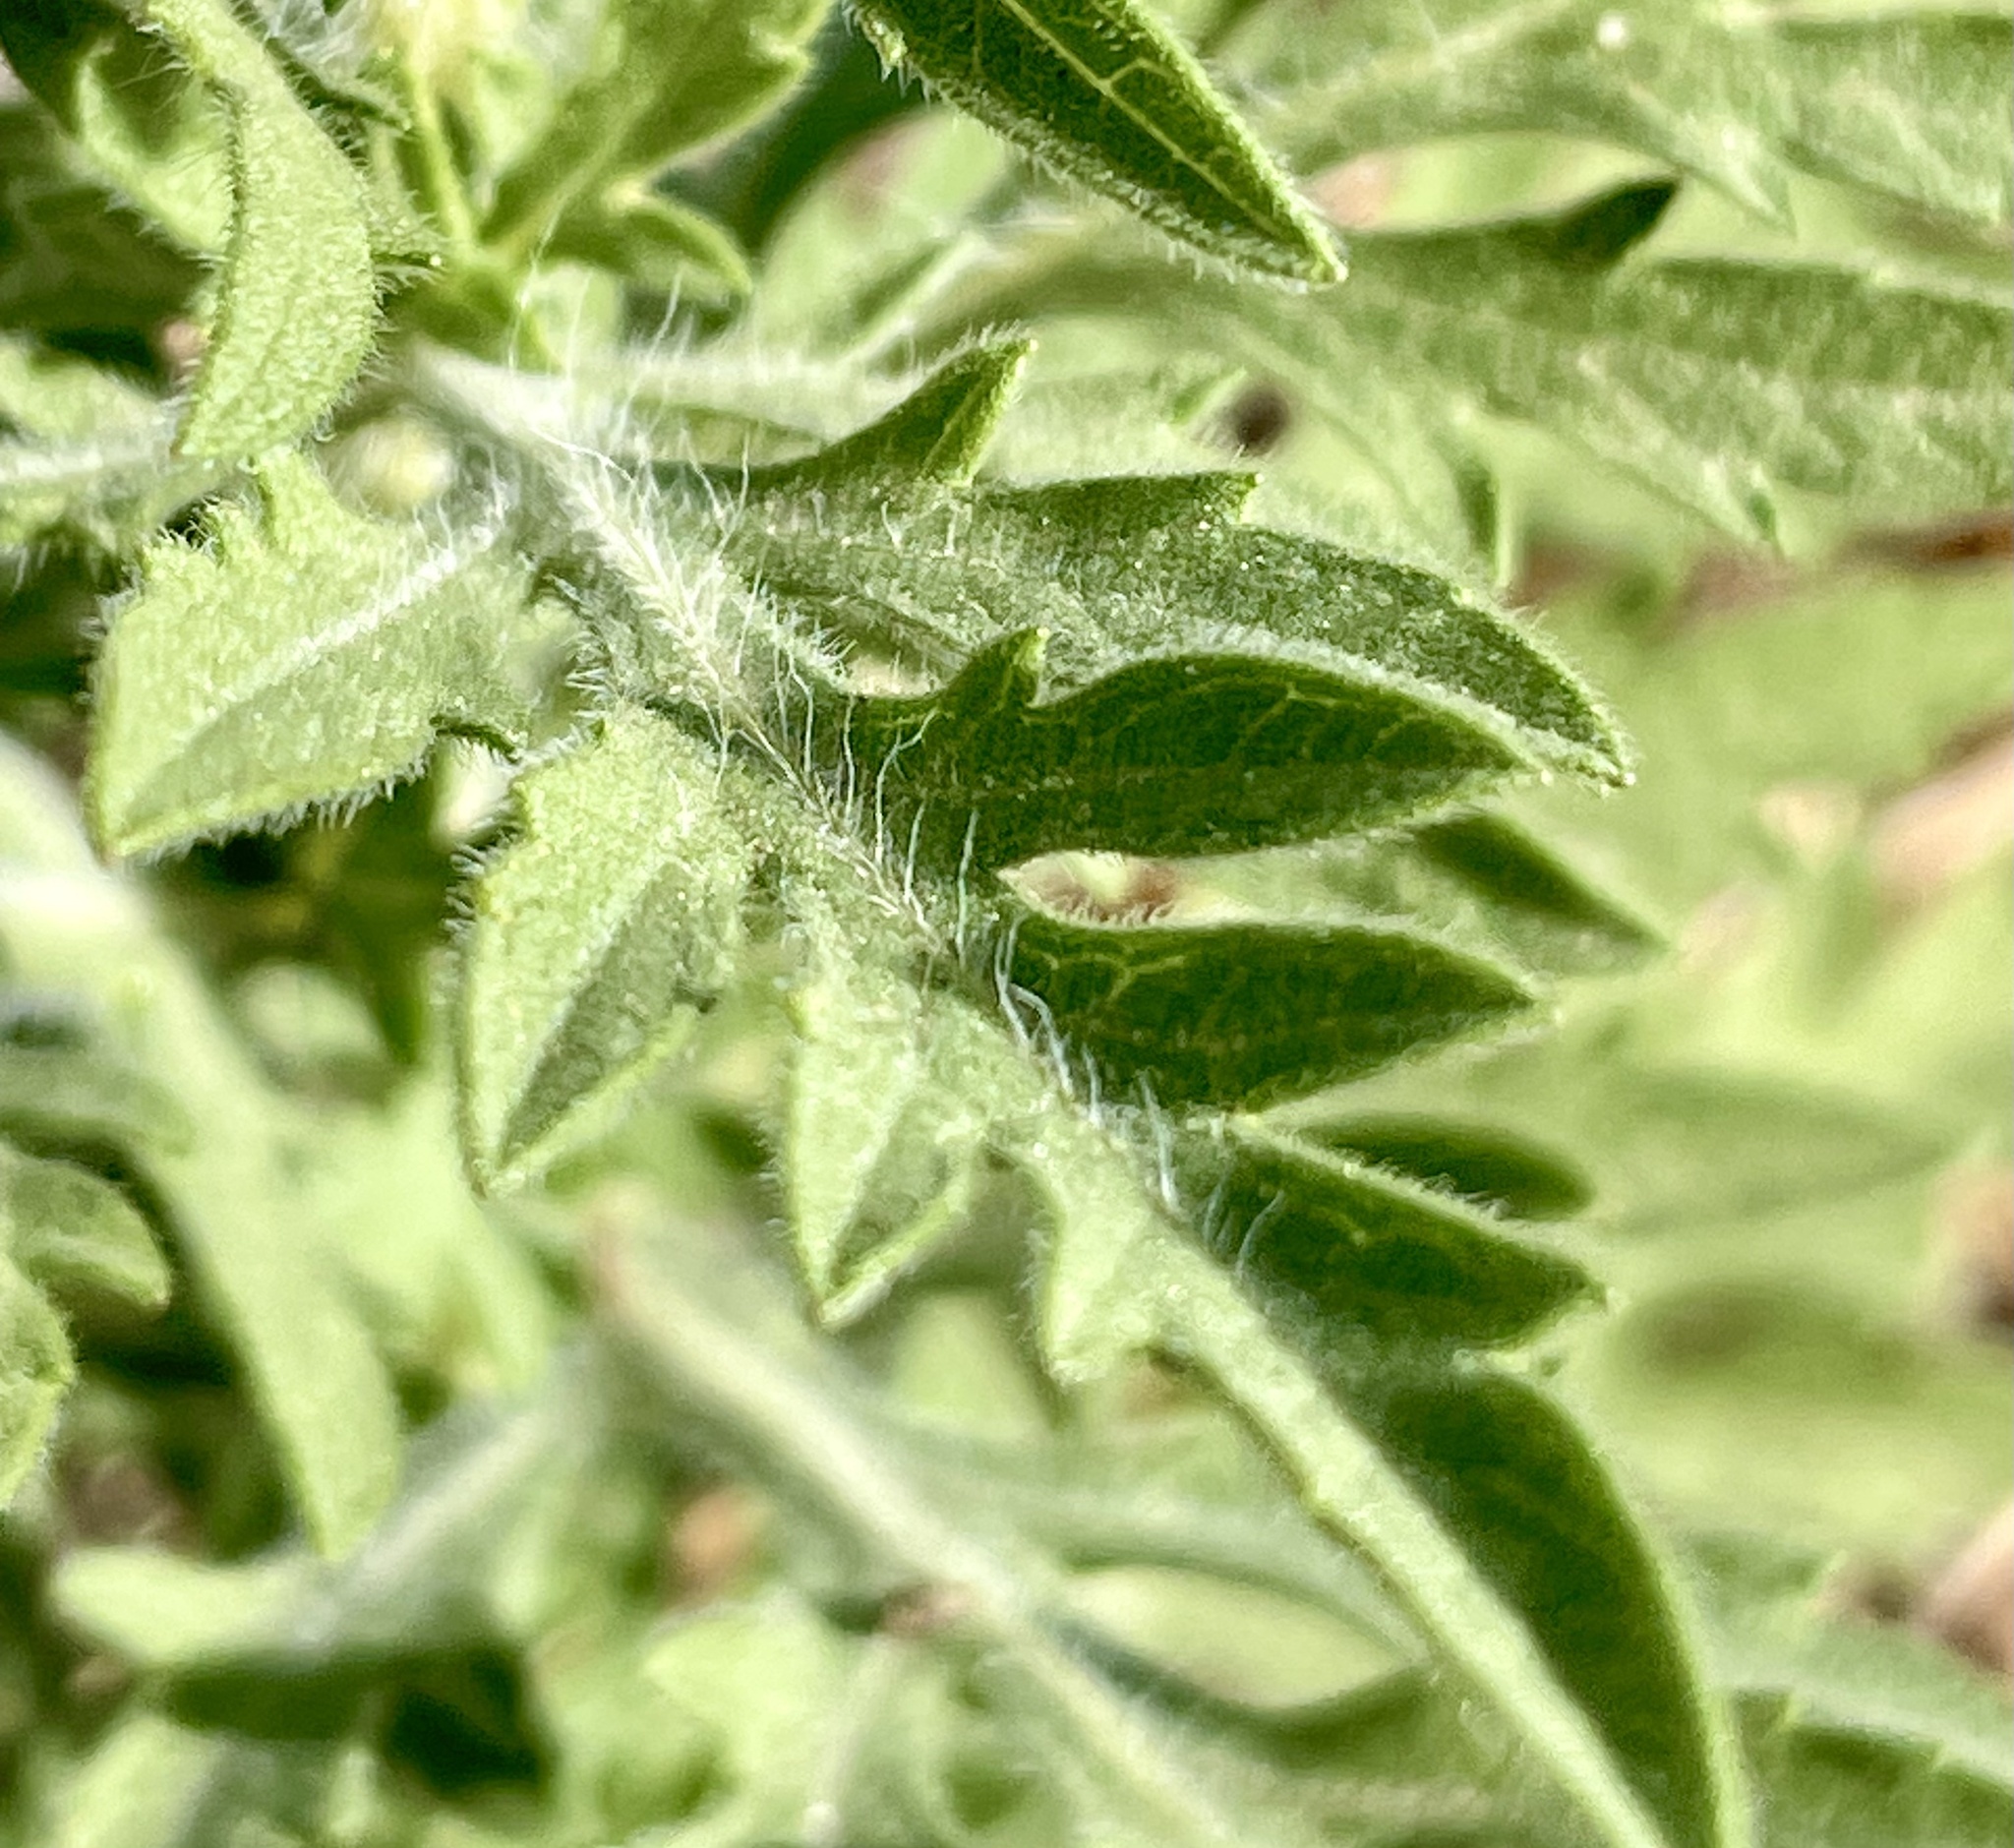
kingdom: Plantae
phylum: Tracheophyta
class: Magnoliopsida
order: Asterales
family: Asteraceae
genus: Ambrosia
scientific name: Ambrosia psilostachya
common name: Perennial ragweed
